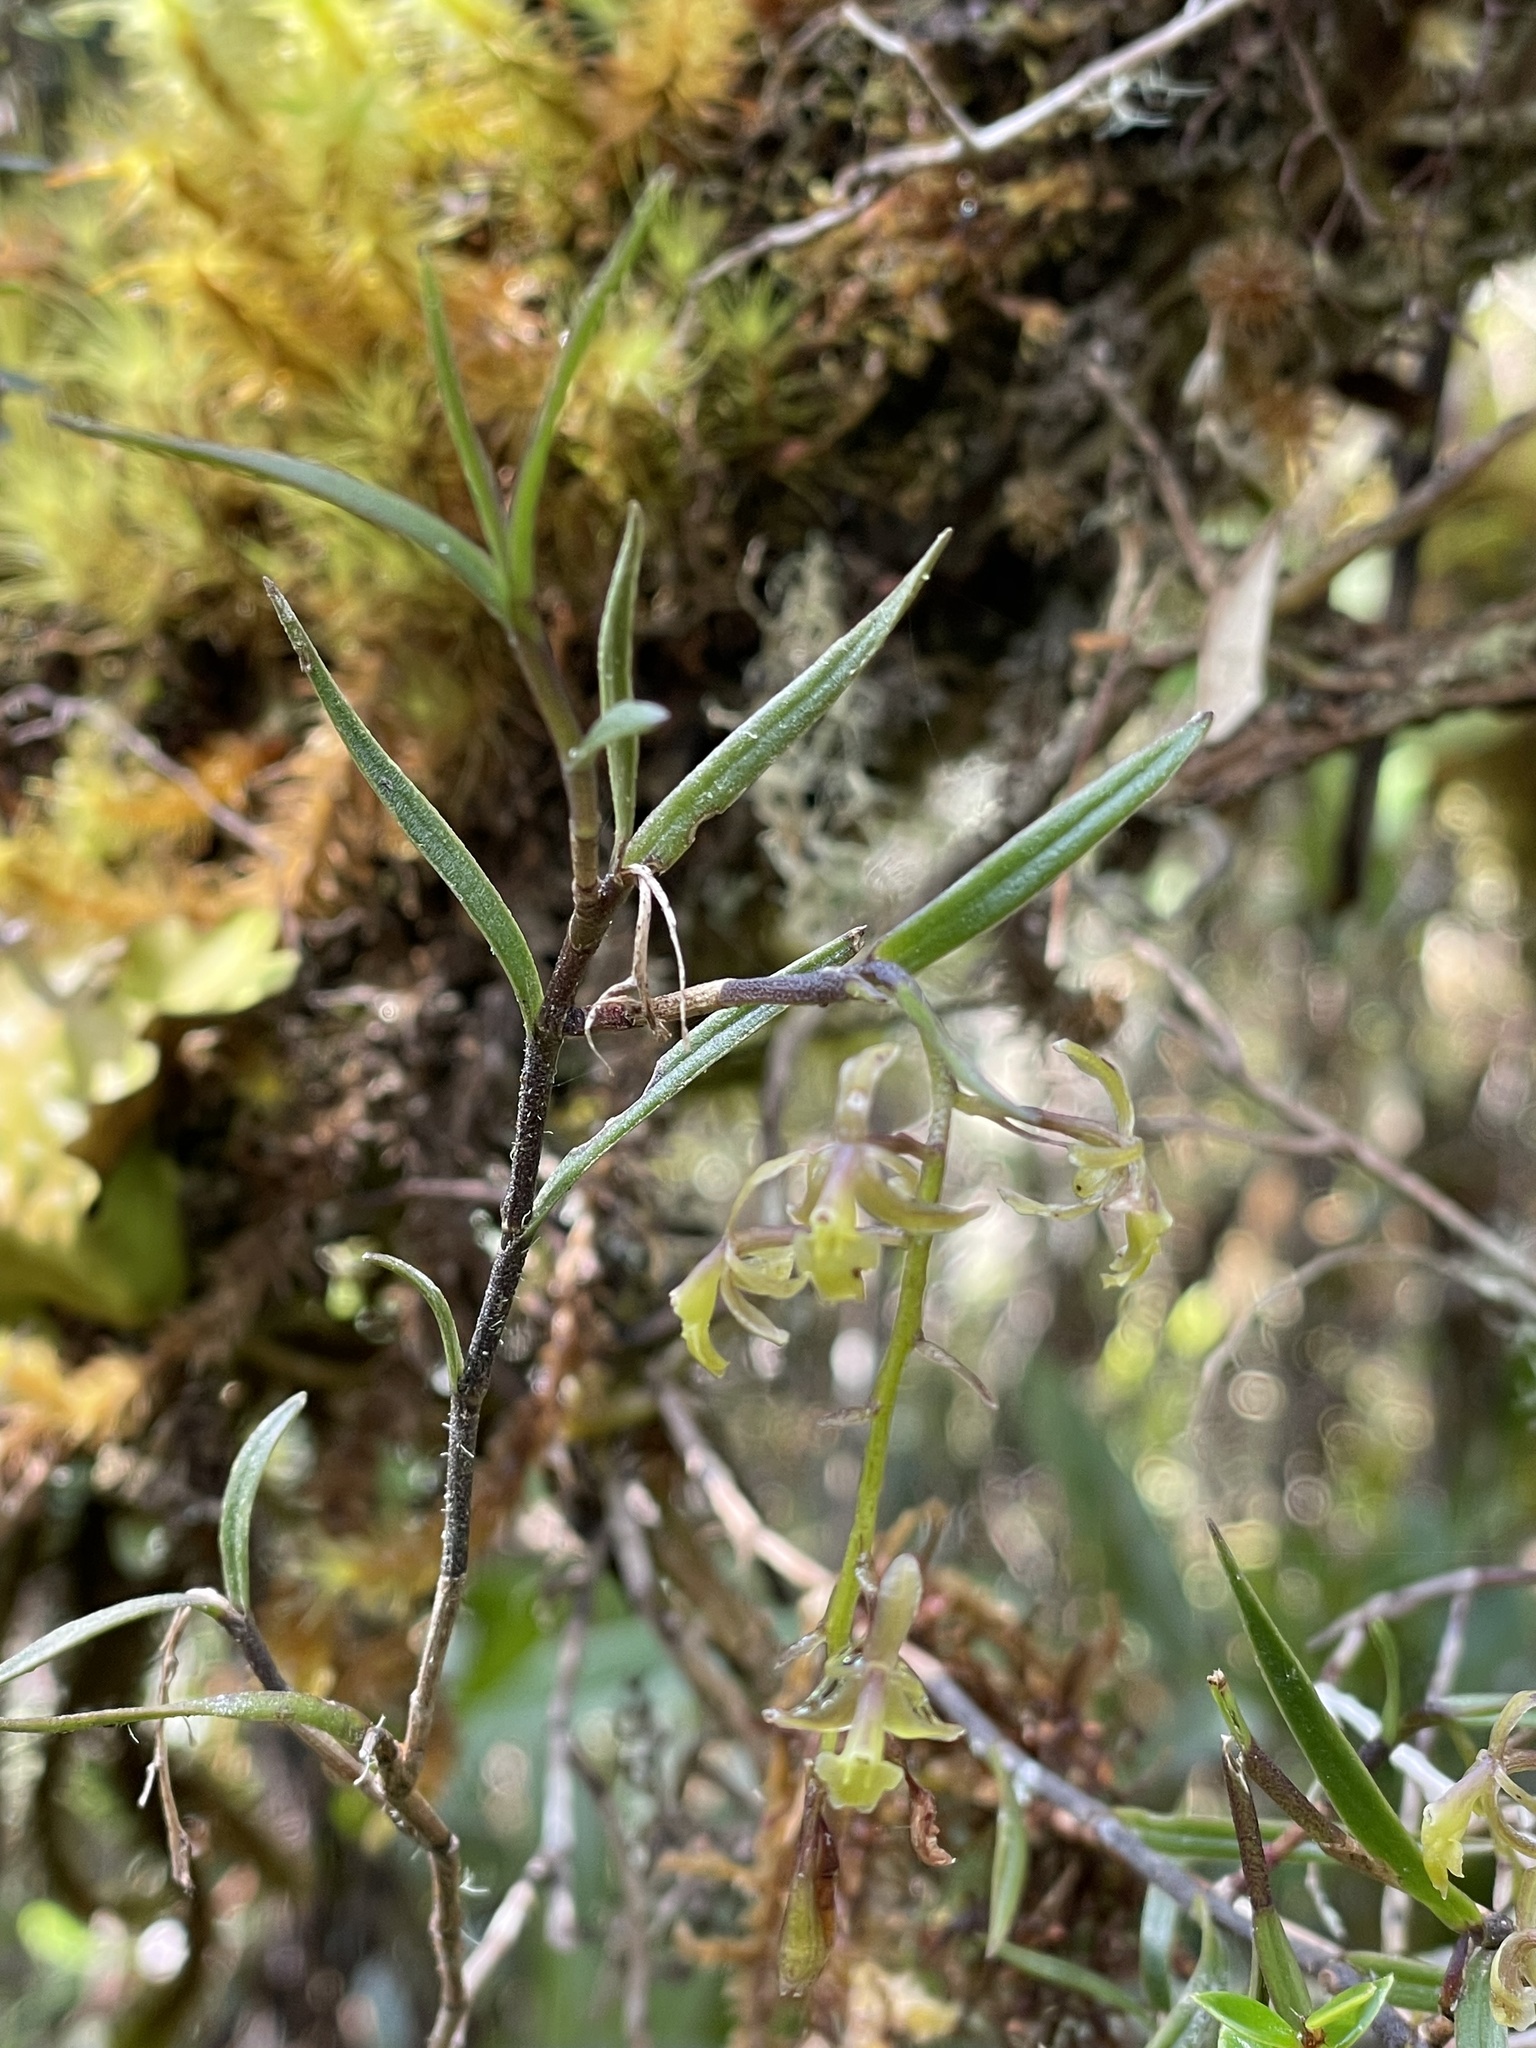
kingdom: Plantae
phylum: Tracheophyta
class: Liliopsida
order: Asparagales
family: Orchidaceae
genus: Epidendrum
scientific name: Epidendrum angustissimum
